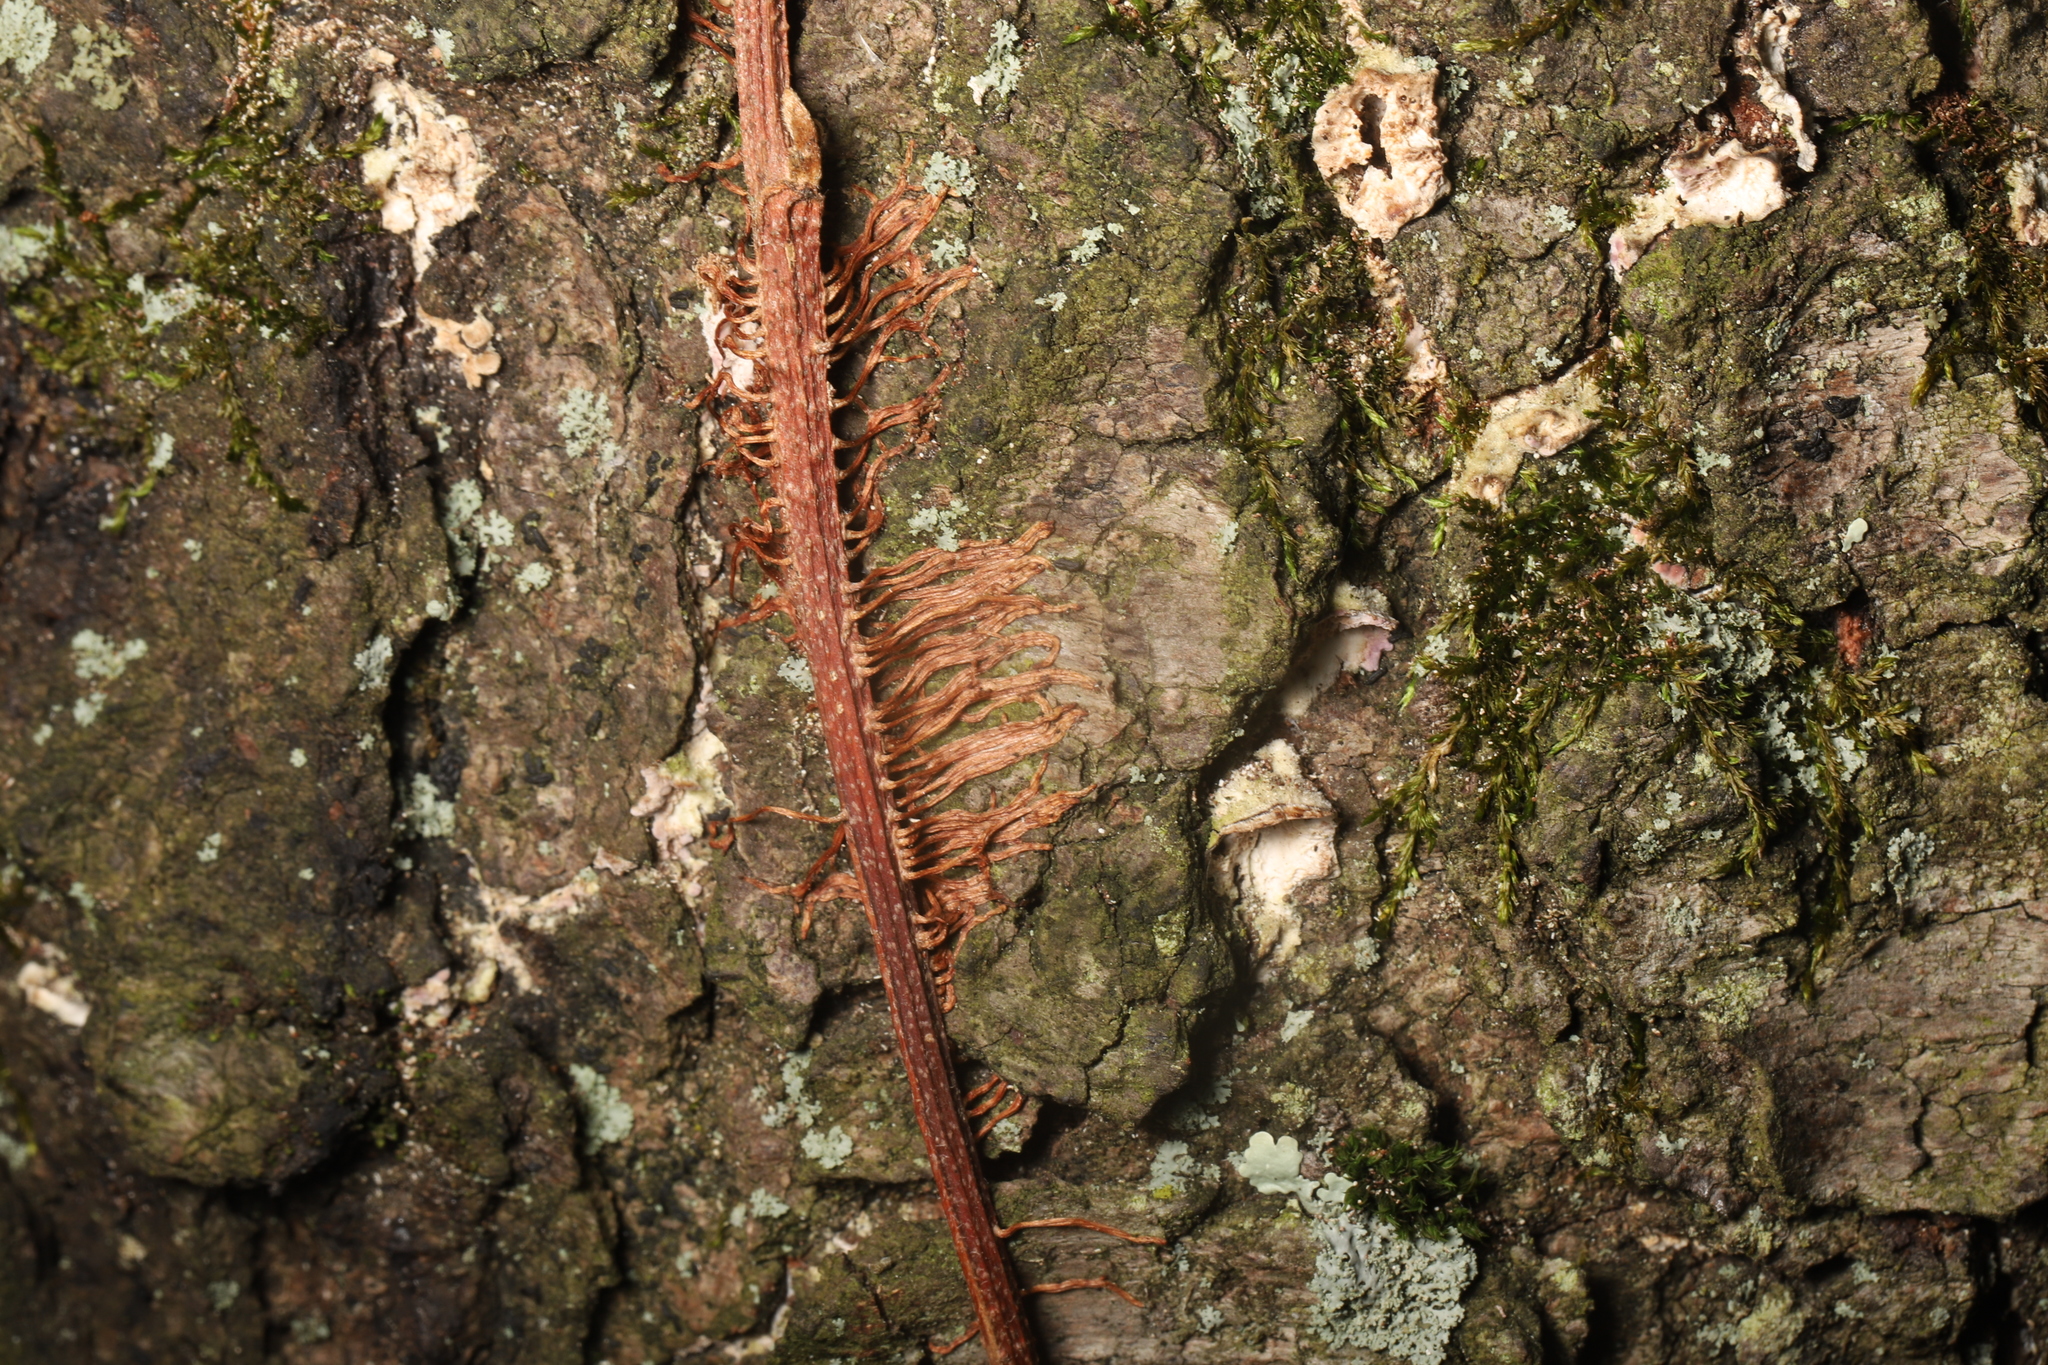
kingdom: Plantae
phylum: Tracheophyta
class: Magnoliopsida
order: Sapindales
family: Anacardiaceae
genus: Toxicodendron
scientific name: Toxicodendron radicans
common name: Poison ivy
